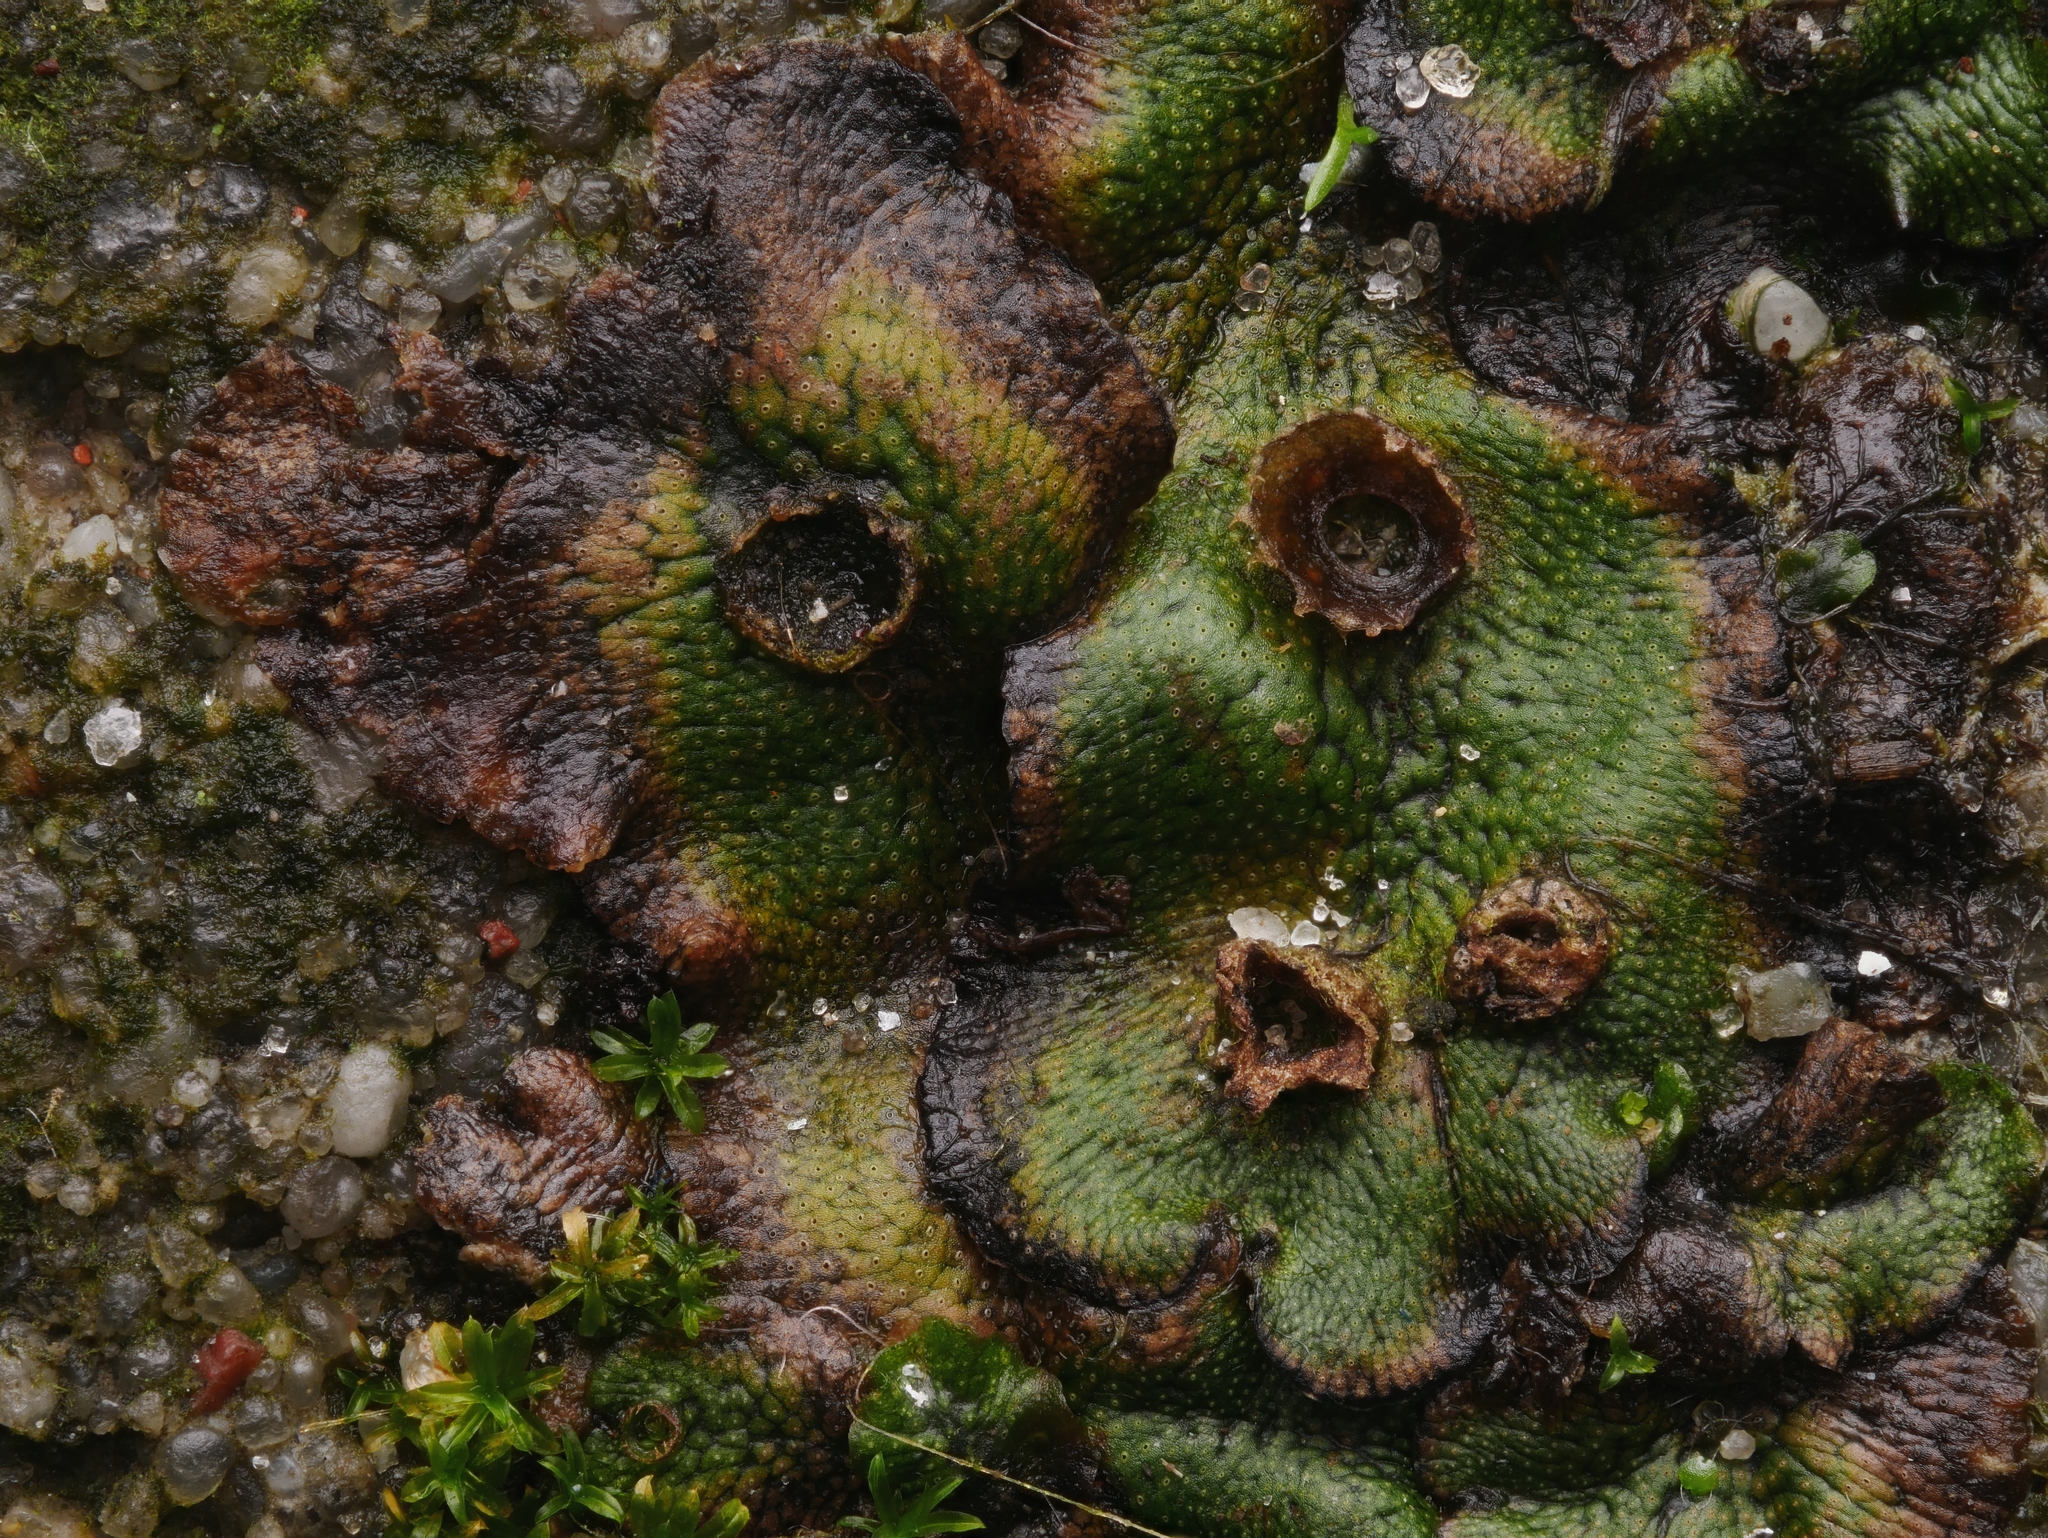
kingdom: Plantae
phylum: Marchantiophyta
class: Marchantiopsida
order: Marchantiales
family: Marchantiaceae
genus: Marchantia
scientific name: Marchantia polymorpha
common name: Common liverwort
